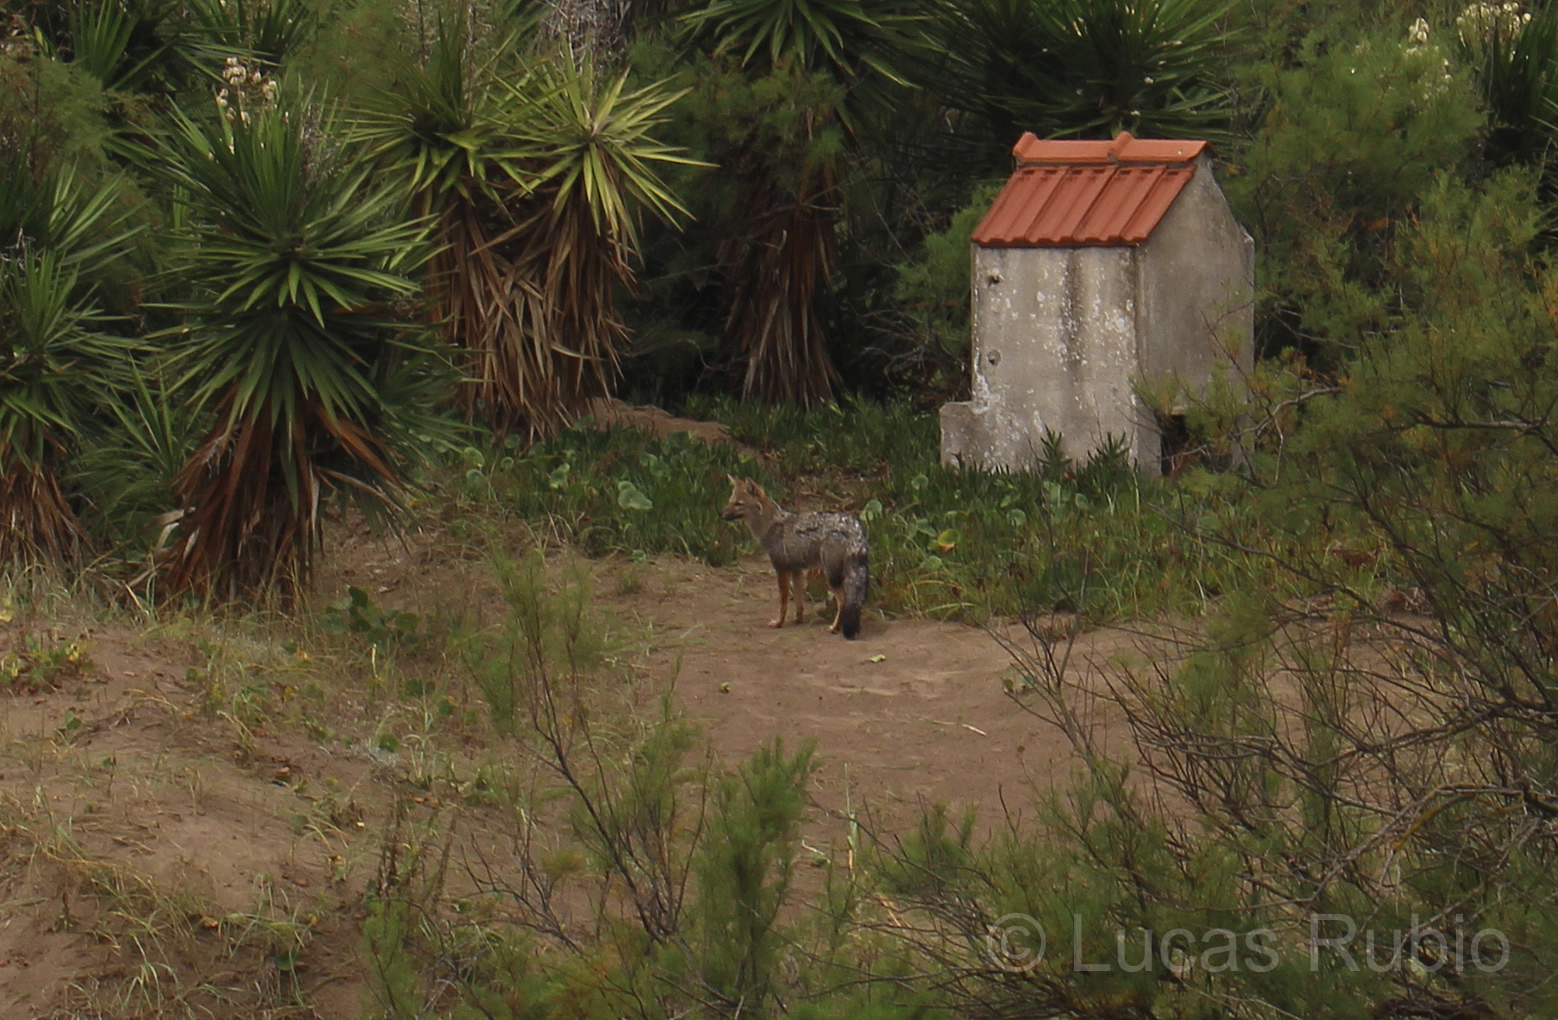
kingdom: Animalia
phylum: Chordata
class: Mammalia
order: Carnivora
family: Canidae
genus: Lycalopex
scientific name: Lycalopex gymnocercus
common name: Pampas fox
